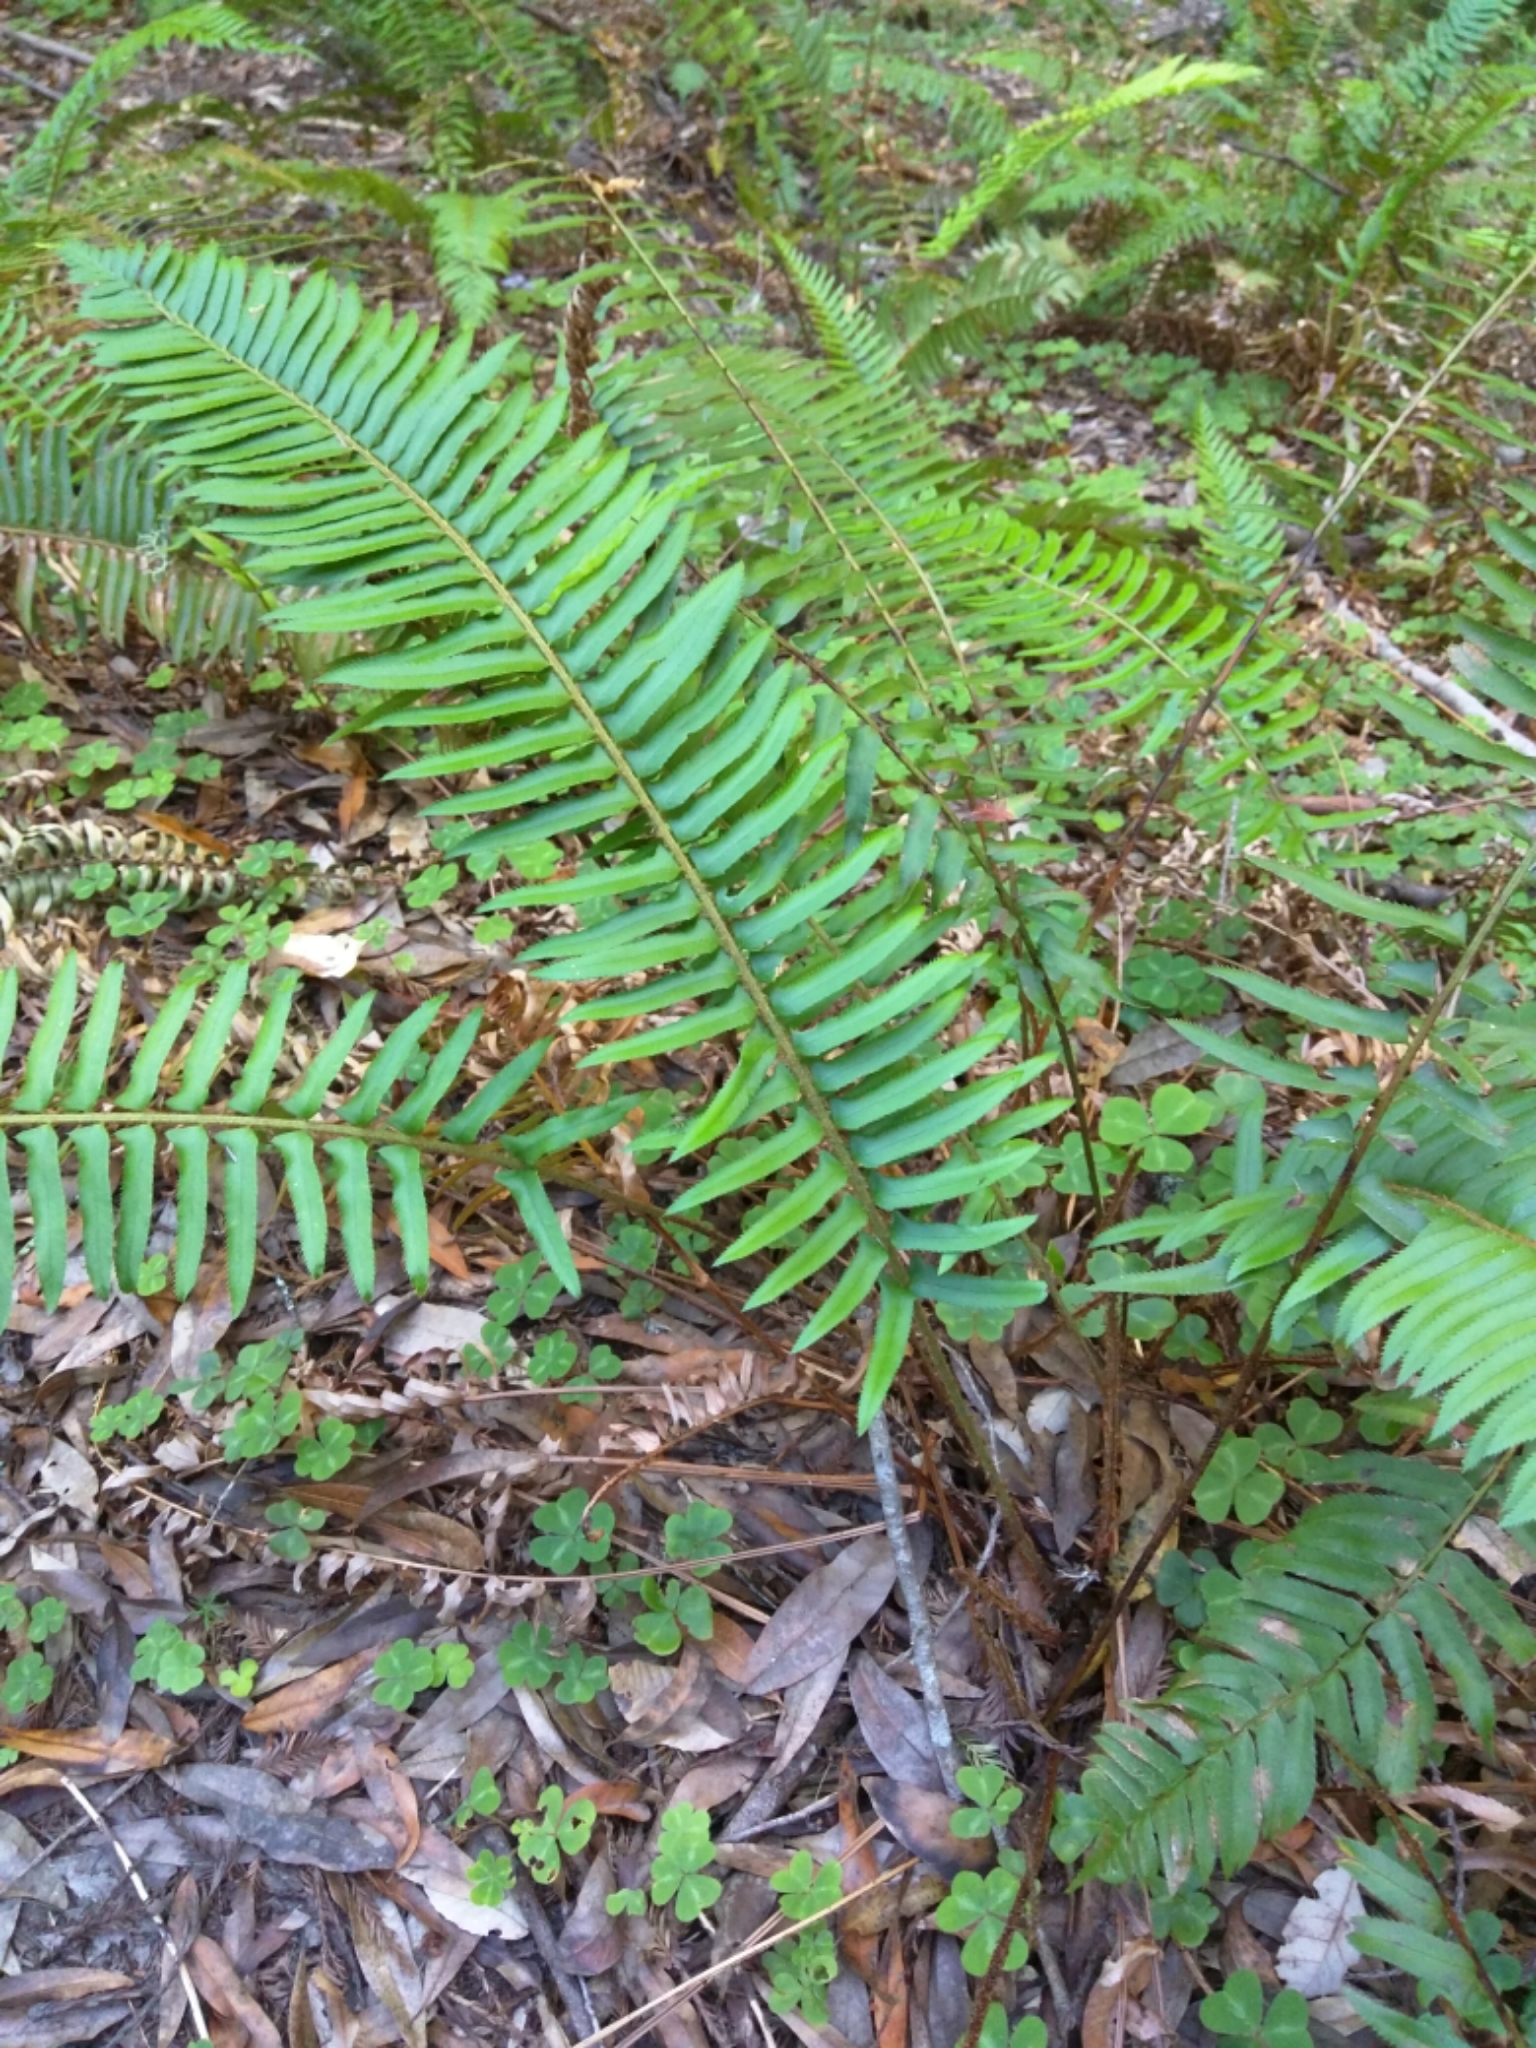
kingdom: Plantae
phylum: Tracheophyta
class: Polypodiopsida
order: Polypodiales
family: Dryopteridaceae
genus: Polystichum
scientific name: Polystichum munitum
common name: Western sword-fern
